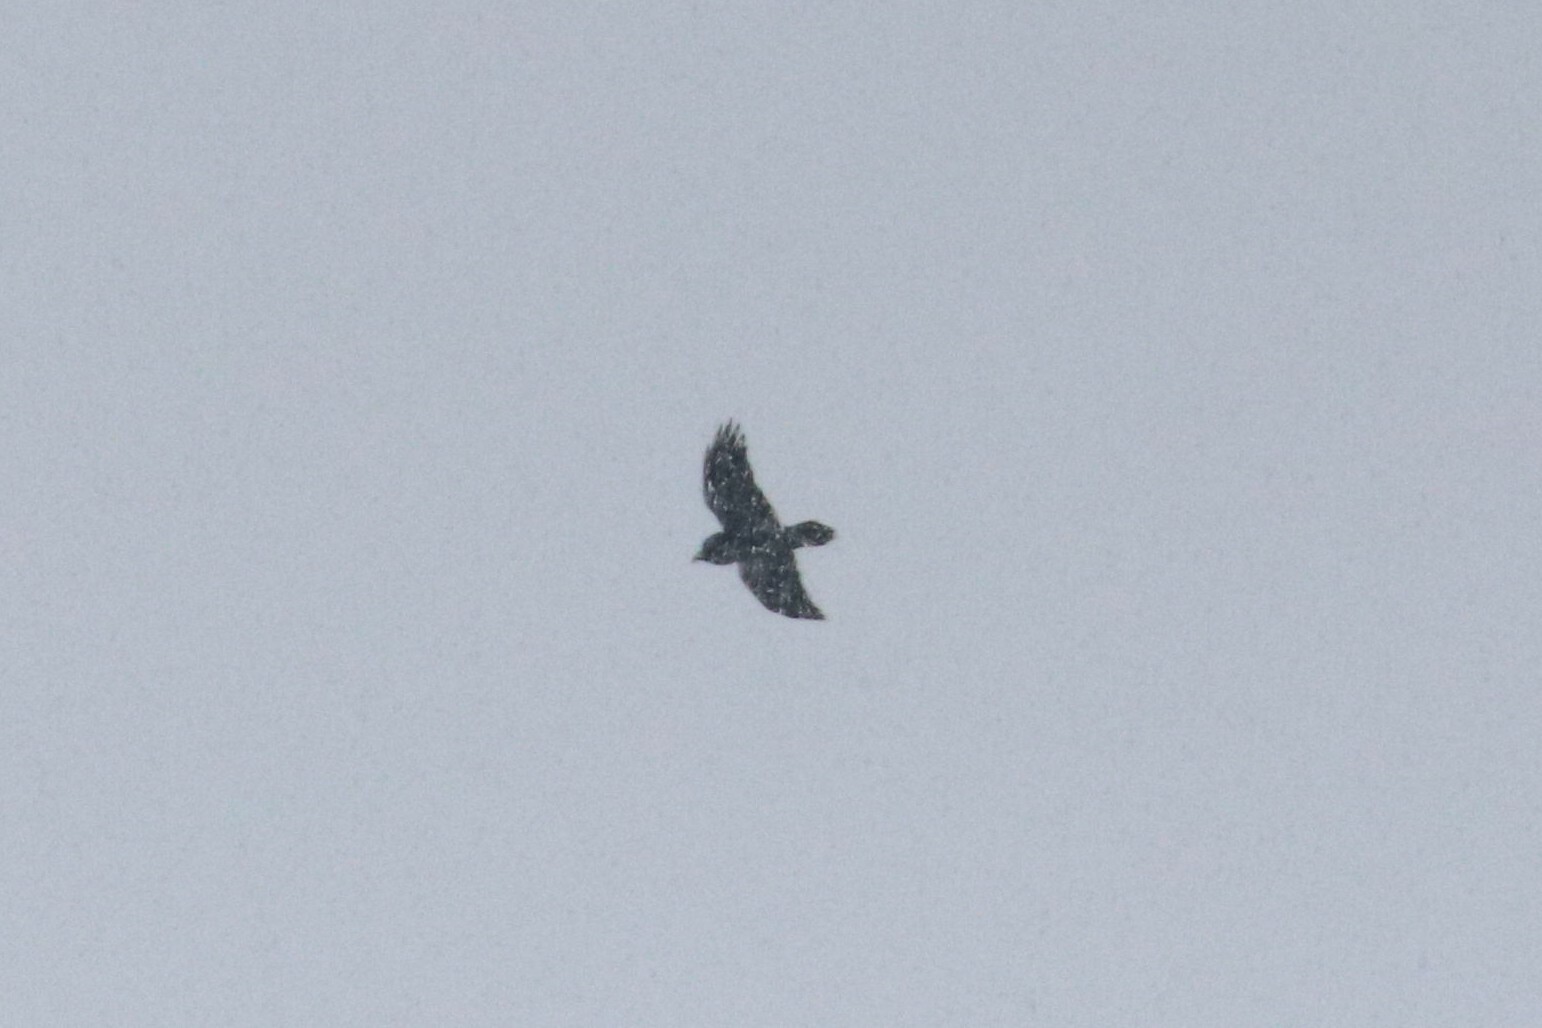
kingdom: Animalia
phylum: Chordata
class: Aves
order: Passeriformes
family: Corvidae
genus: Corvus
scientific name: Corvus corax
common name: Common raven
